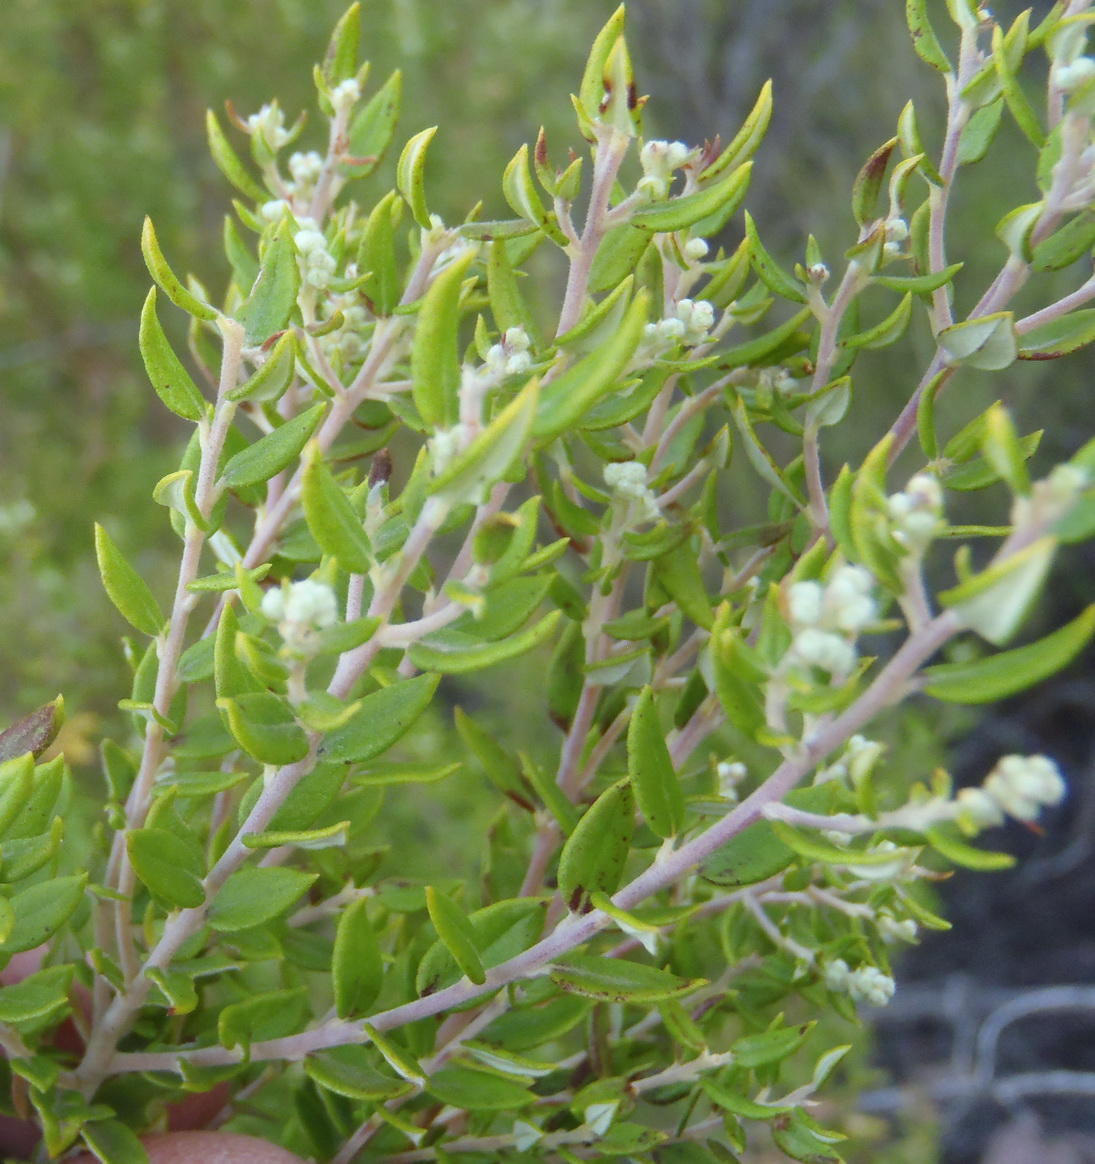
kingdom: Plantae
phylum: Tracheophyta
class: Magnoliopsida
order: Rosales
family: Rhamnaceae
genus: Phylica
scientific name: Phylica paniculata
